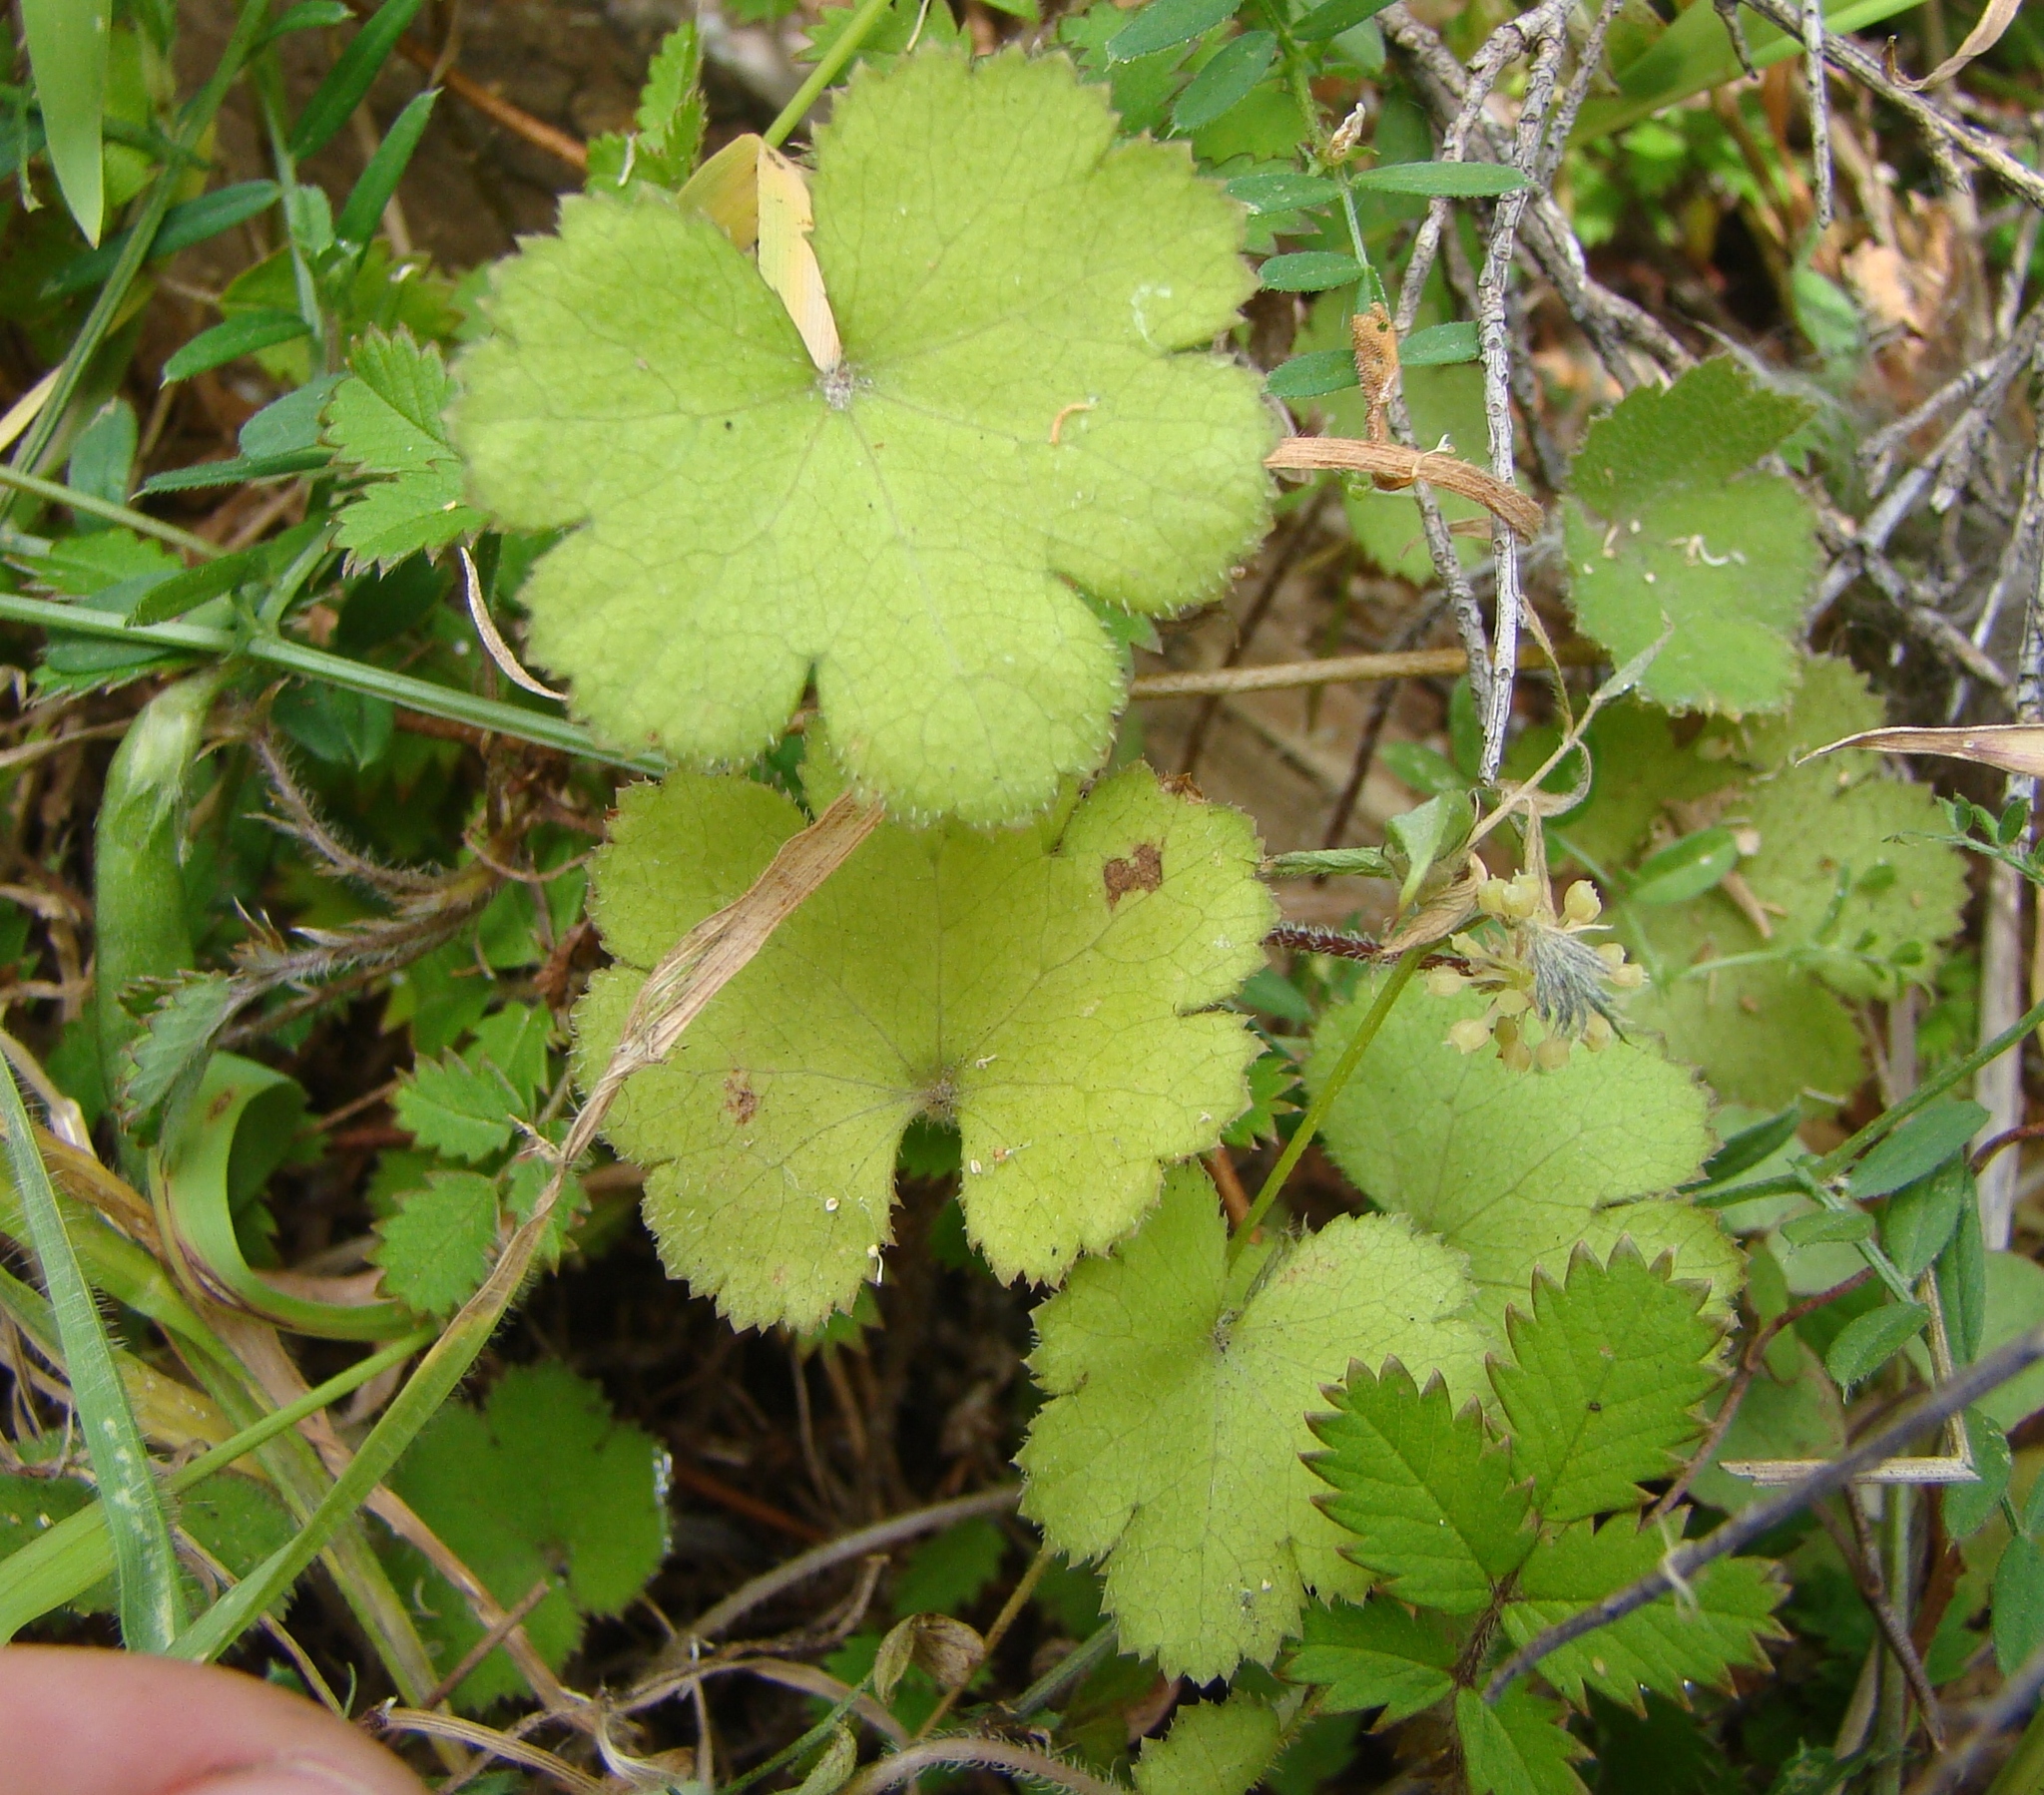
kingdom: Plantae
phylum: Tracheophyta
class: Magnoliopsida
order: Apiales
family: Araliaceae
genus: Hydrocotyle
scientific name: Hydrocotyle moschata
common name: Hairy pennywort
